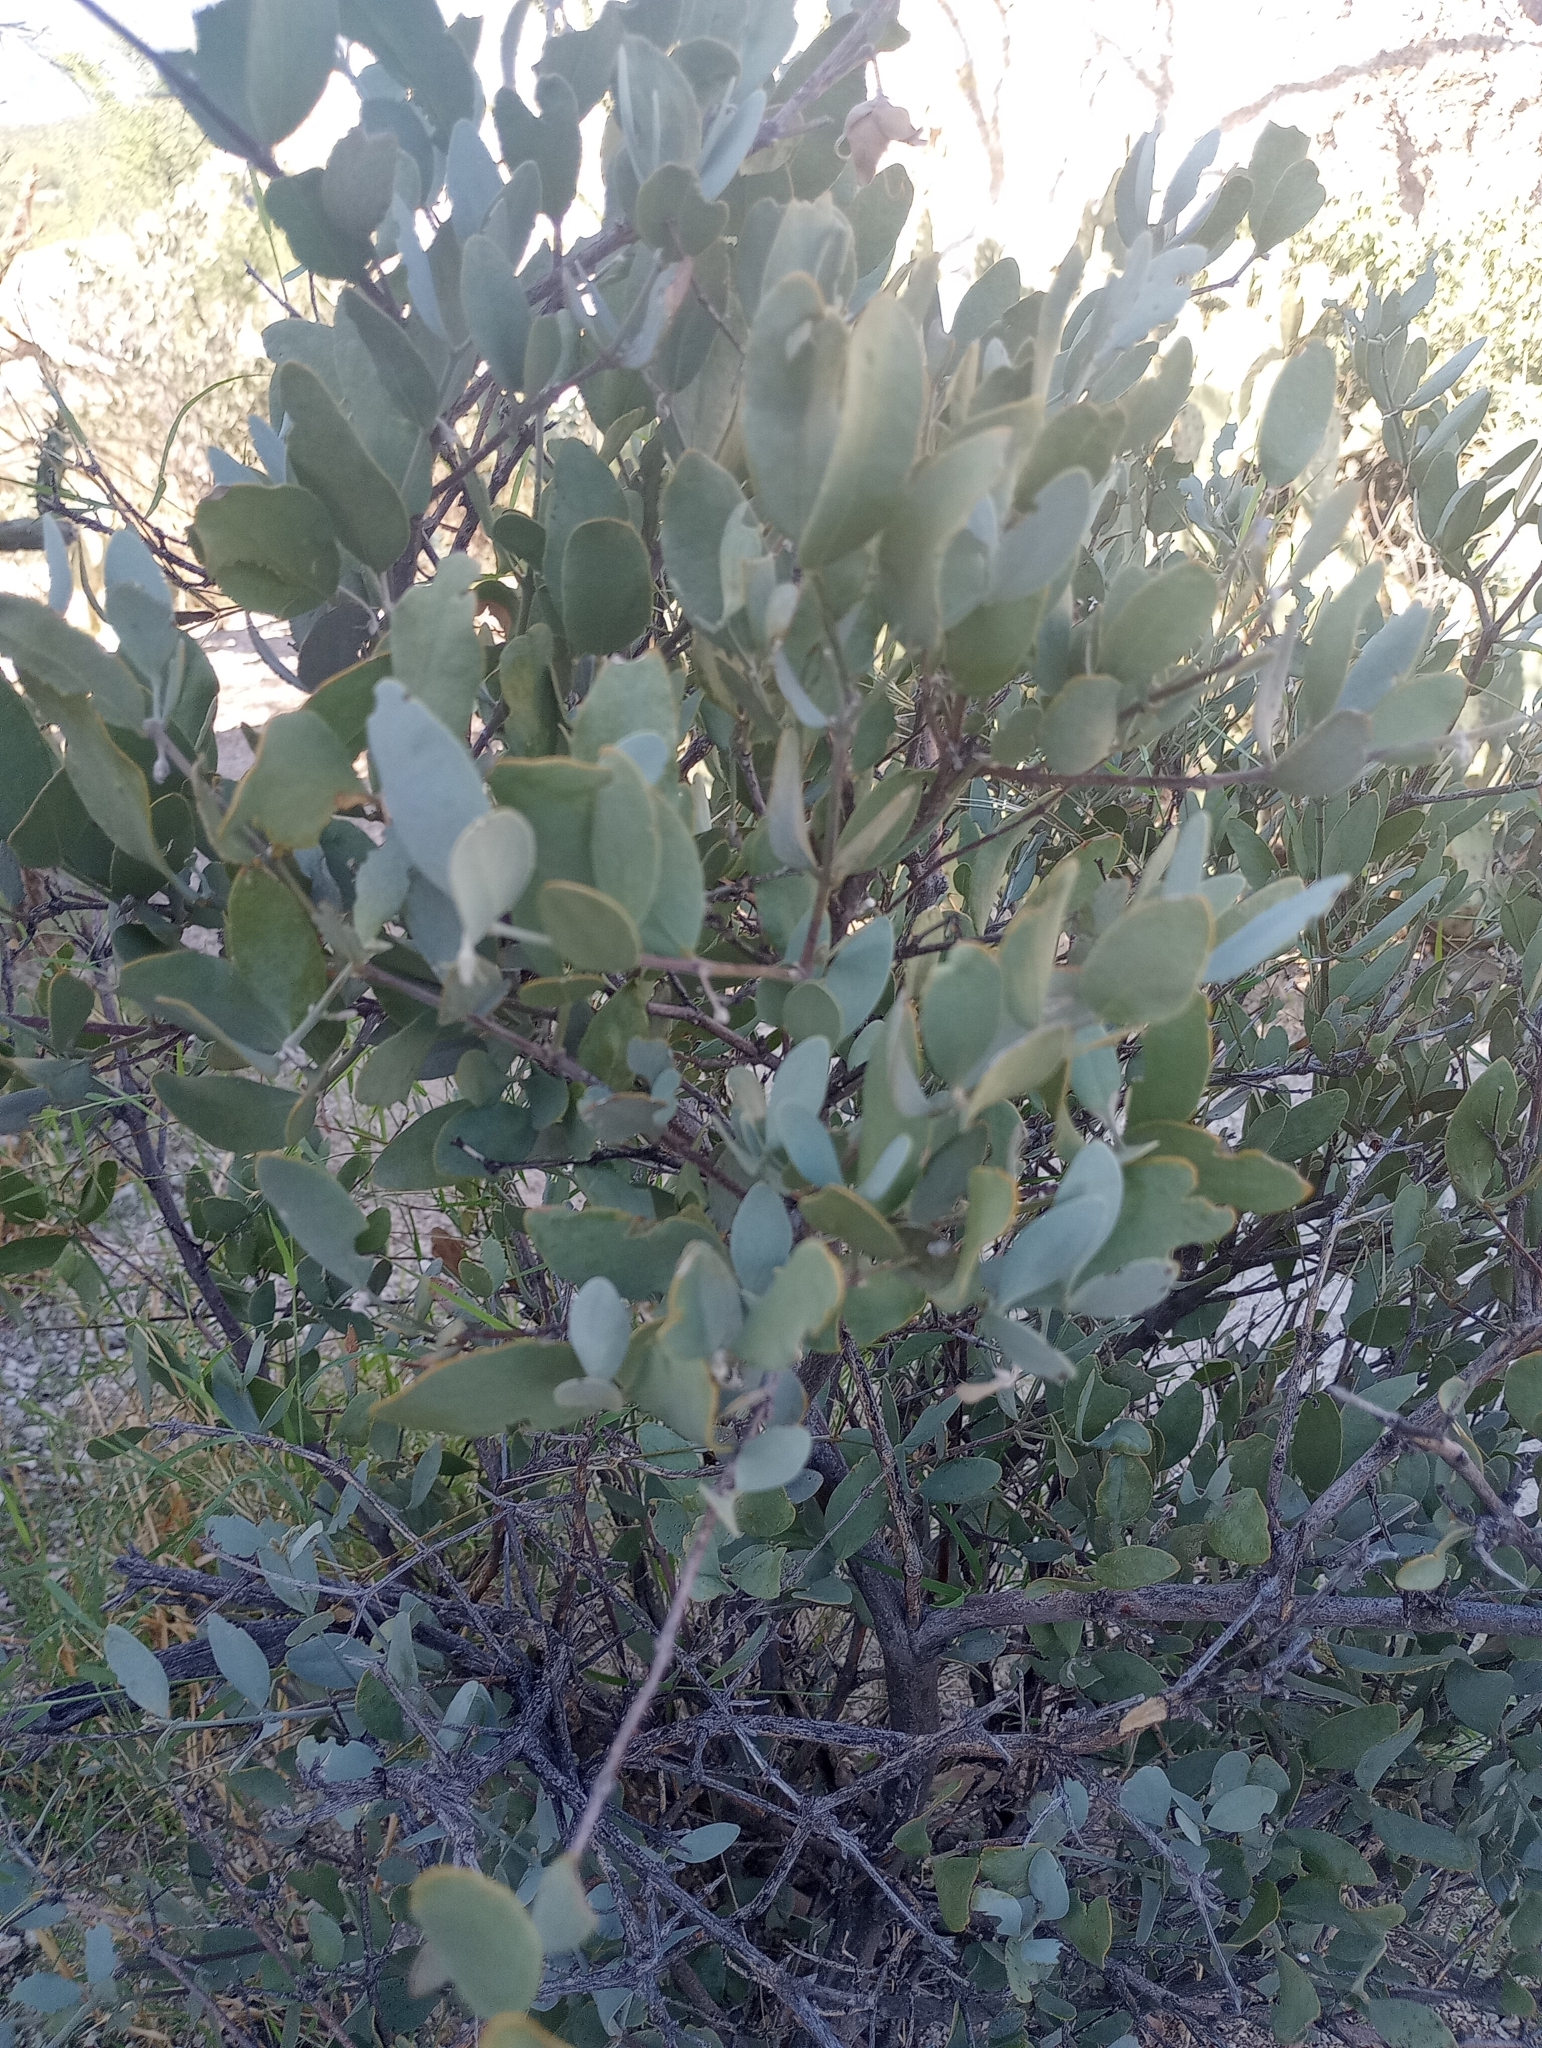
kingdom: Plantae
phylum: Tracheophyta
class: Magnoliopsida
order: Caryophyllales
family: Simmondsiaceae
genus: Simmondsia
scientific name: Simmondsia chinensis
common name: Jojoba
